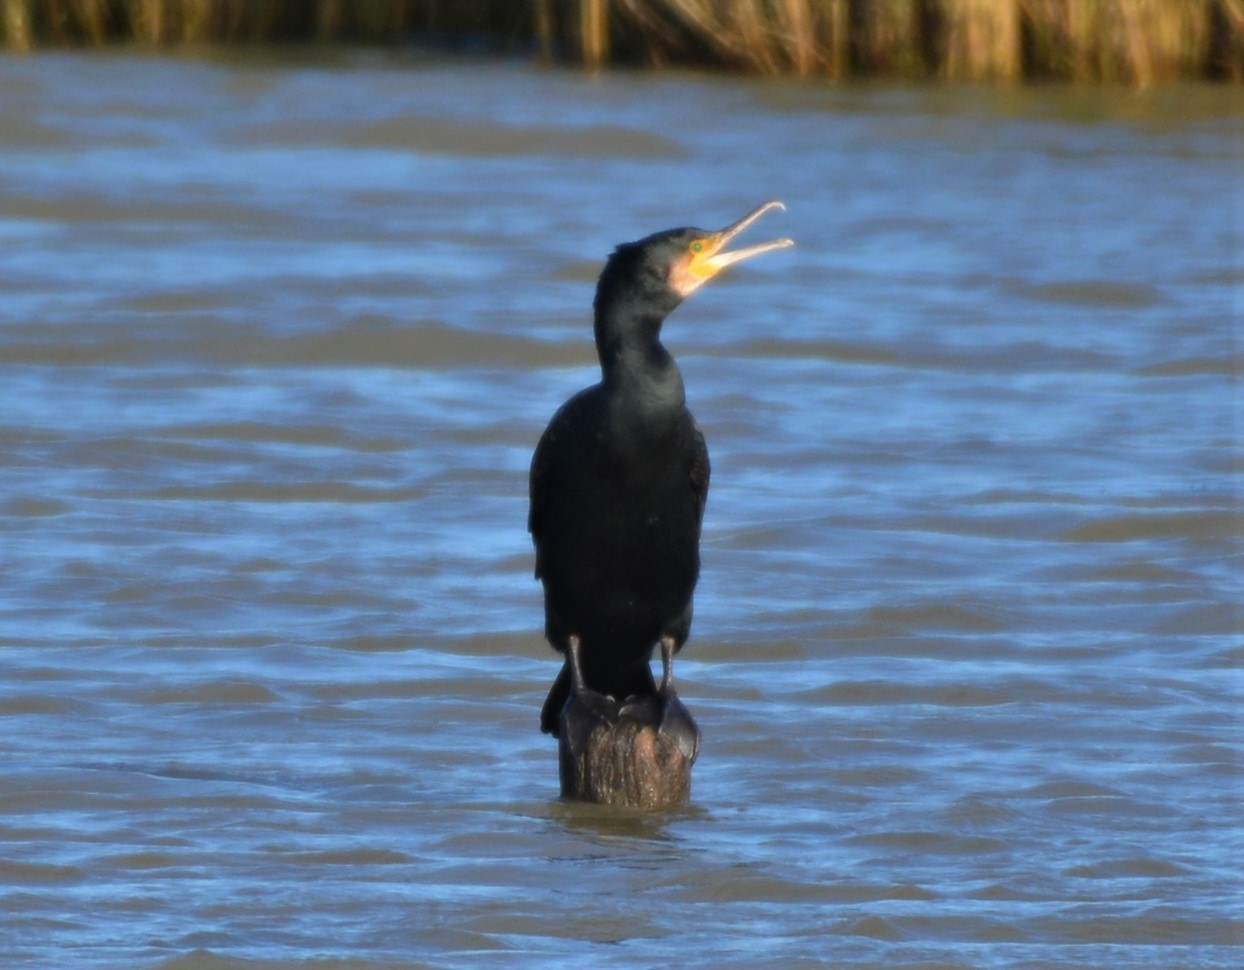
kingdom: Animalia
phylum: Chordata
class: Aves
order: Suliformes
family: Phalacrocoracidae
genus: Phalacrocorax
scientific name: Phalacrocorax carbo
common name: Great cormorant
